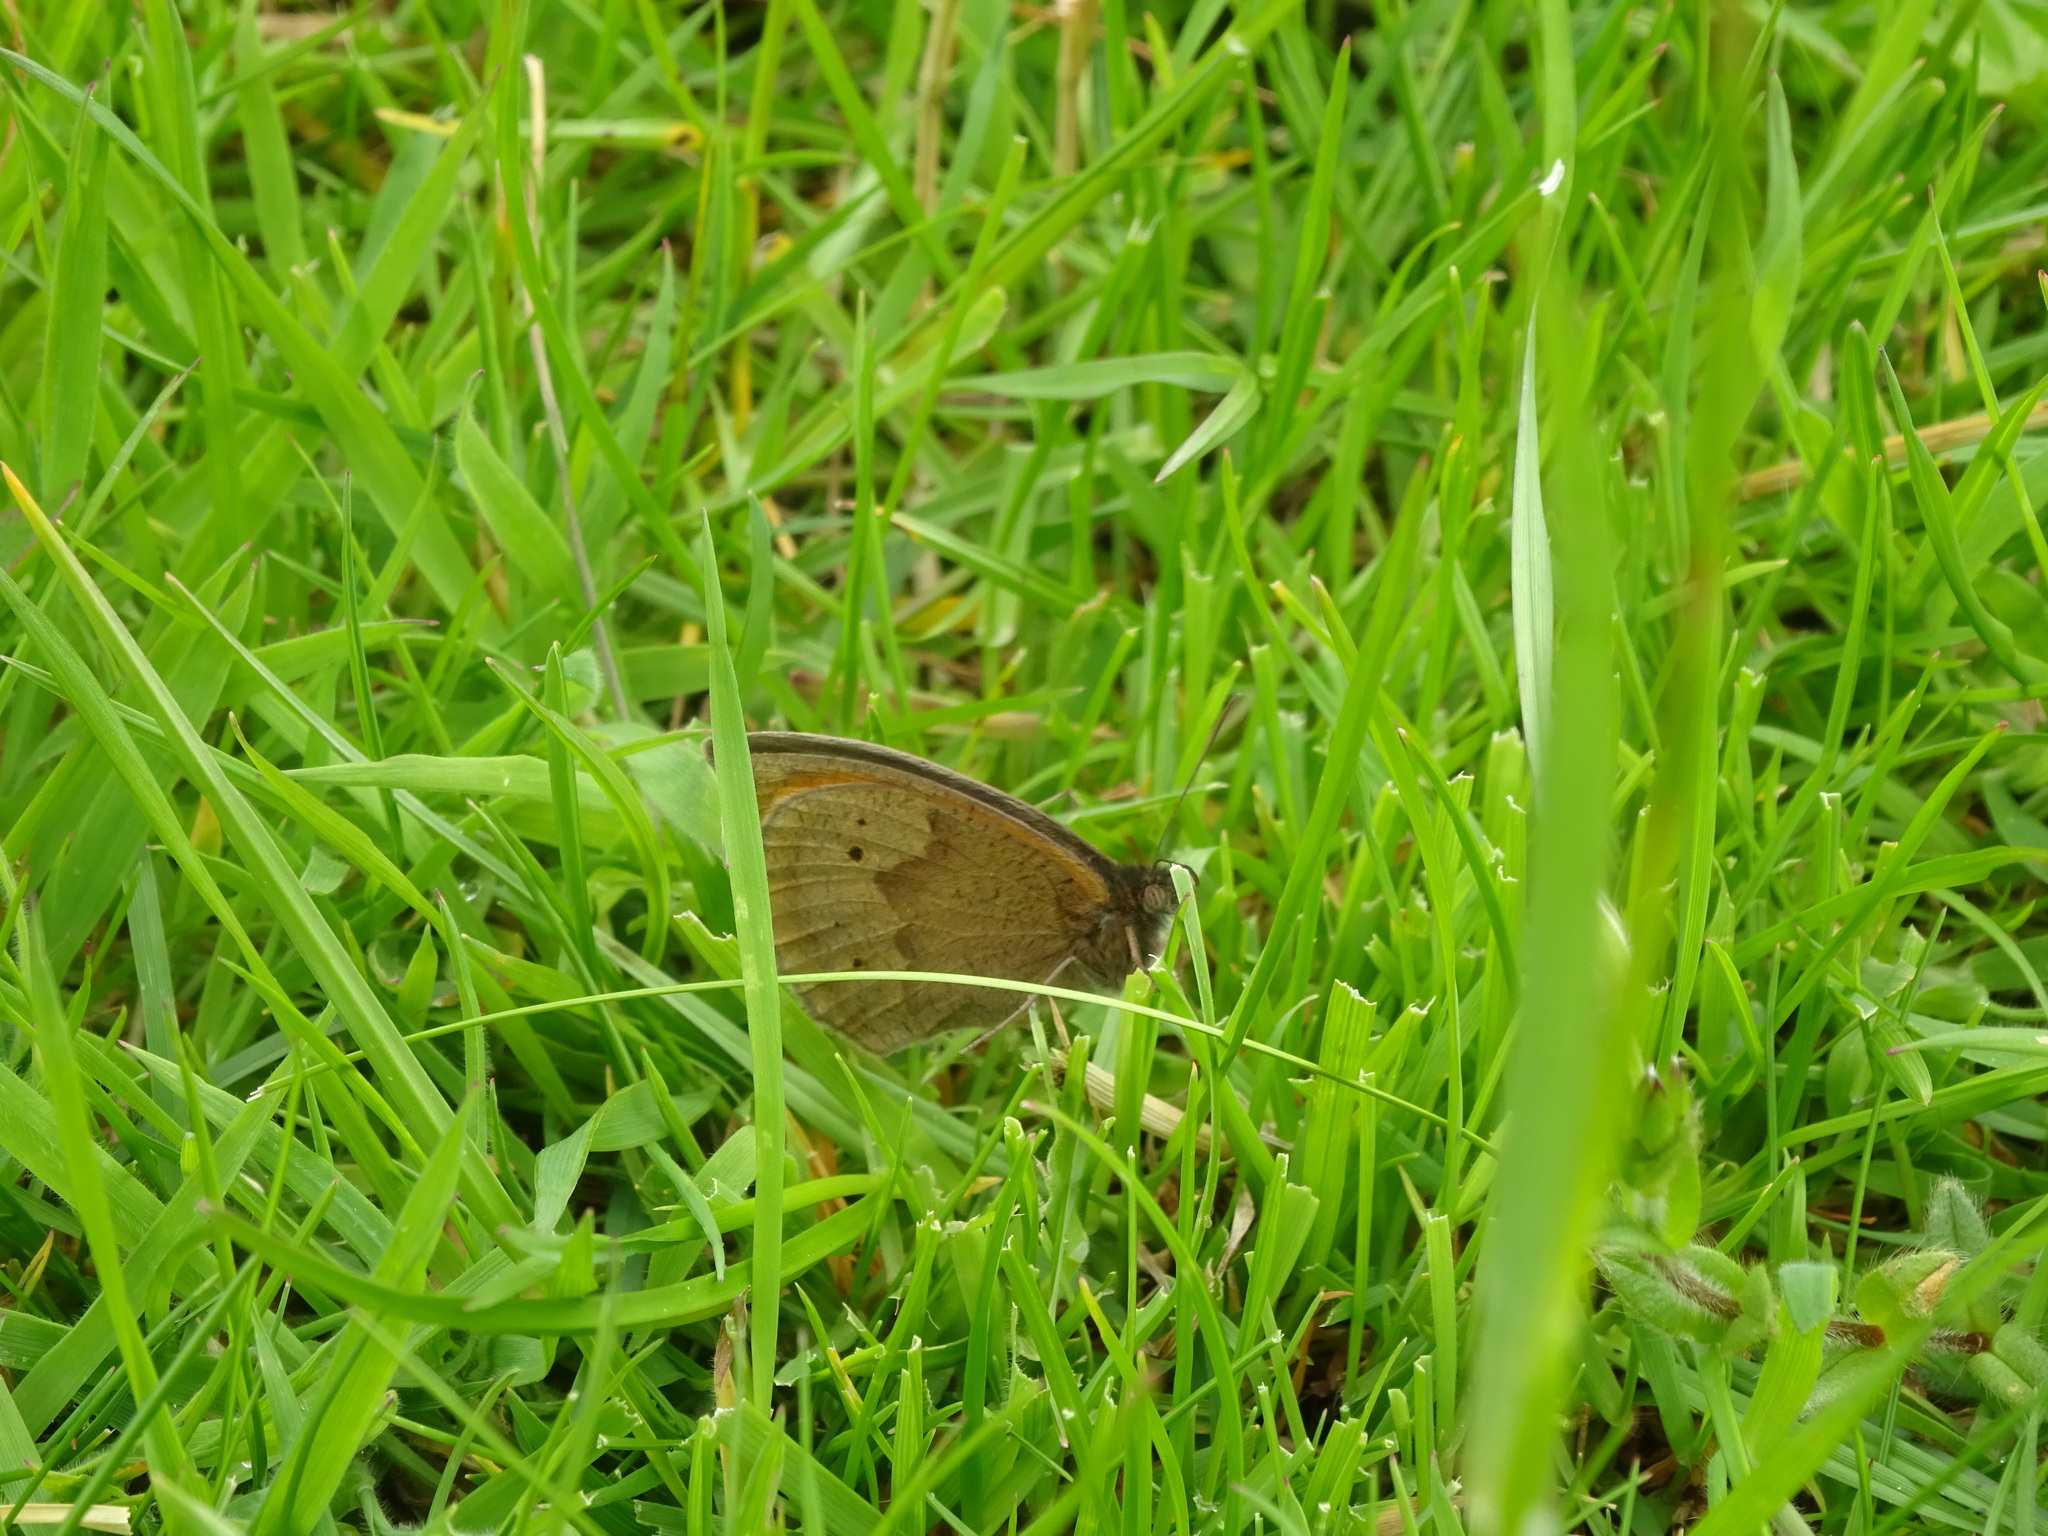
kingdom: Animalia
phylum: Arthropoda
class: Insecta
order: Lepidoptera
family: Nymphalidae
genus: Maniola
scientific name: Maniola jurtina
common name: Meadow brown
